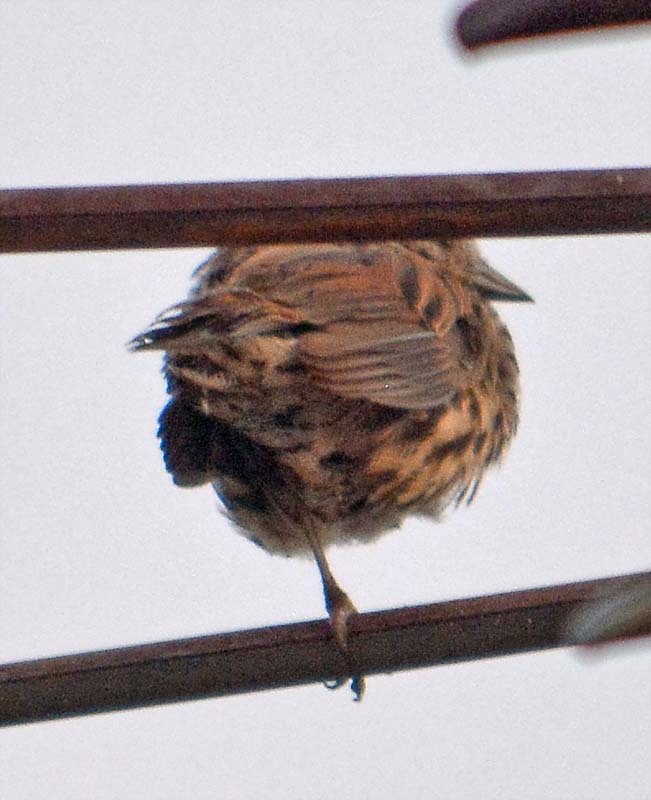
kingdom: Animalia
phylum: Chordata
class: Aves
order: Passeriformes
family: Passerellidae
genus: Melospiza
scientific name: Melospiza melodia
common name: Song sparrow
